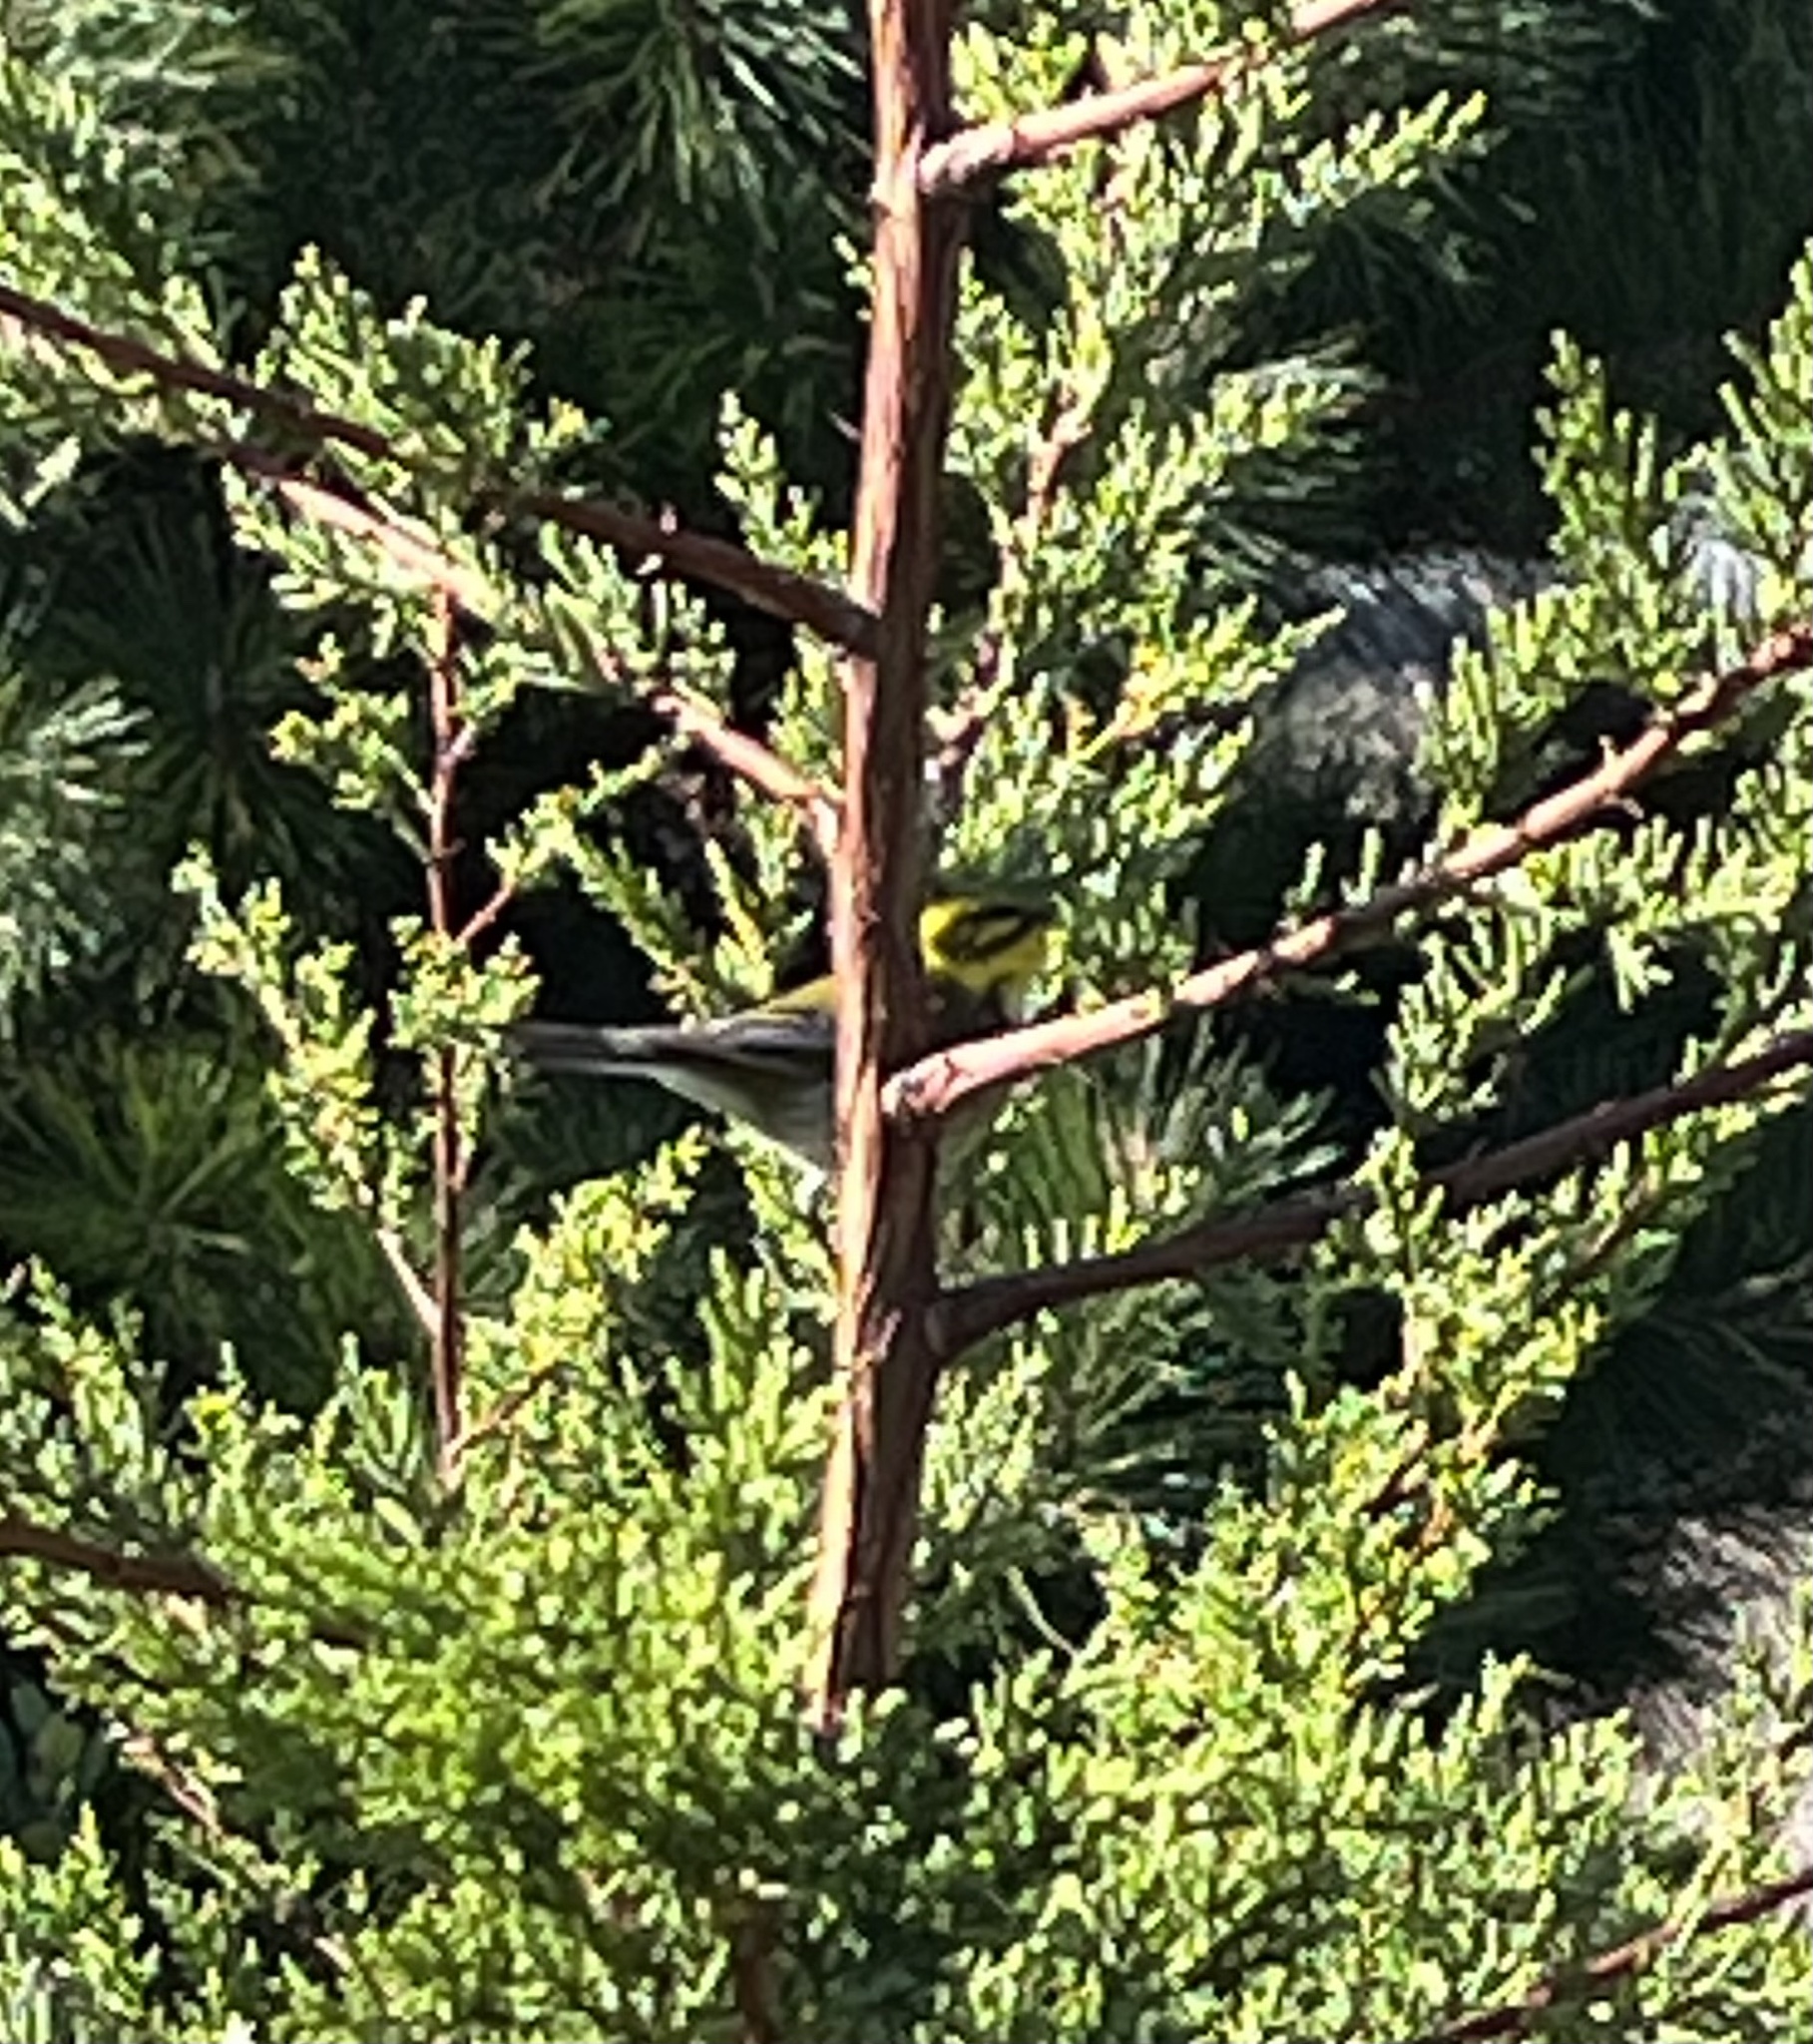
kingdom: Animalia
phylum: Chordata
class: Aves
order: Passeriformes
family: Parulidae
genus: Setophaga
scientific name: Setophaga townsendi
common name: Townsend's warbler
